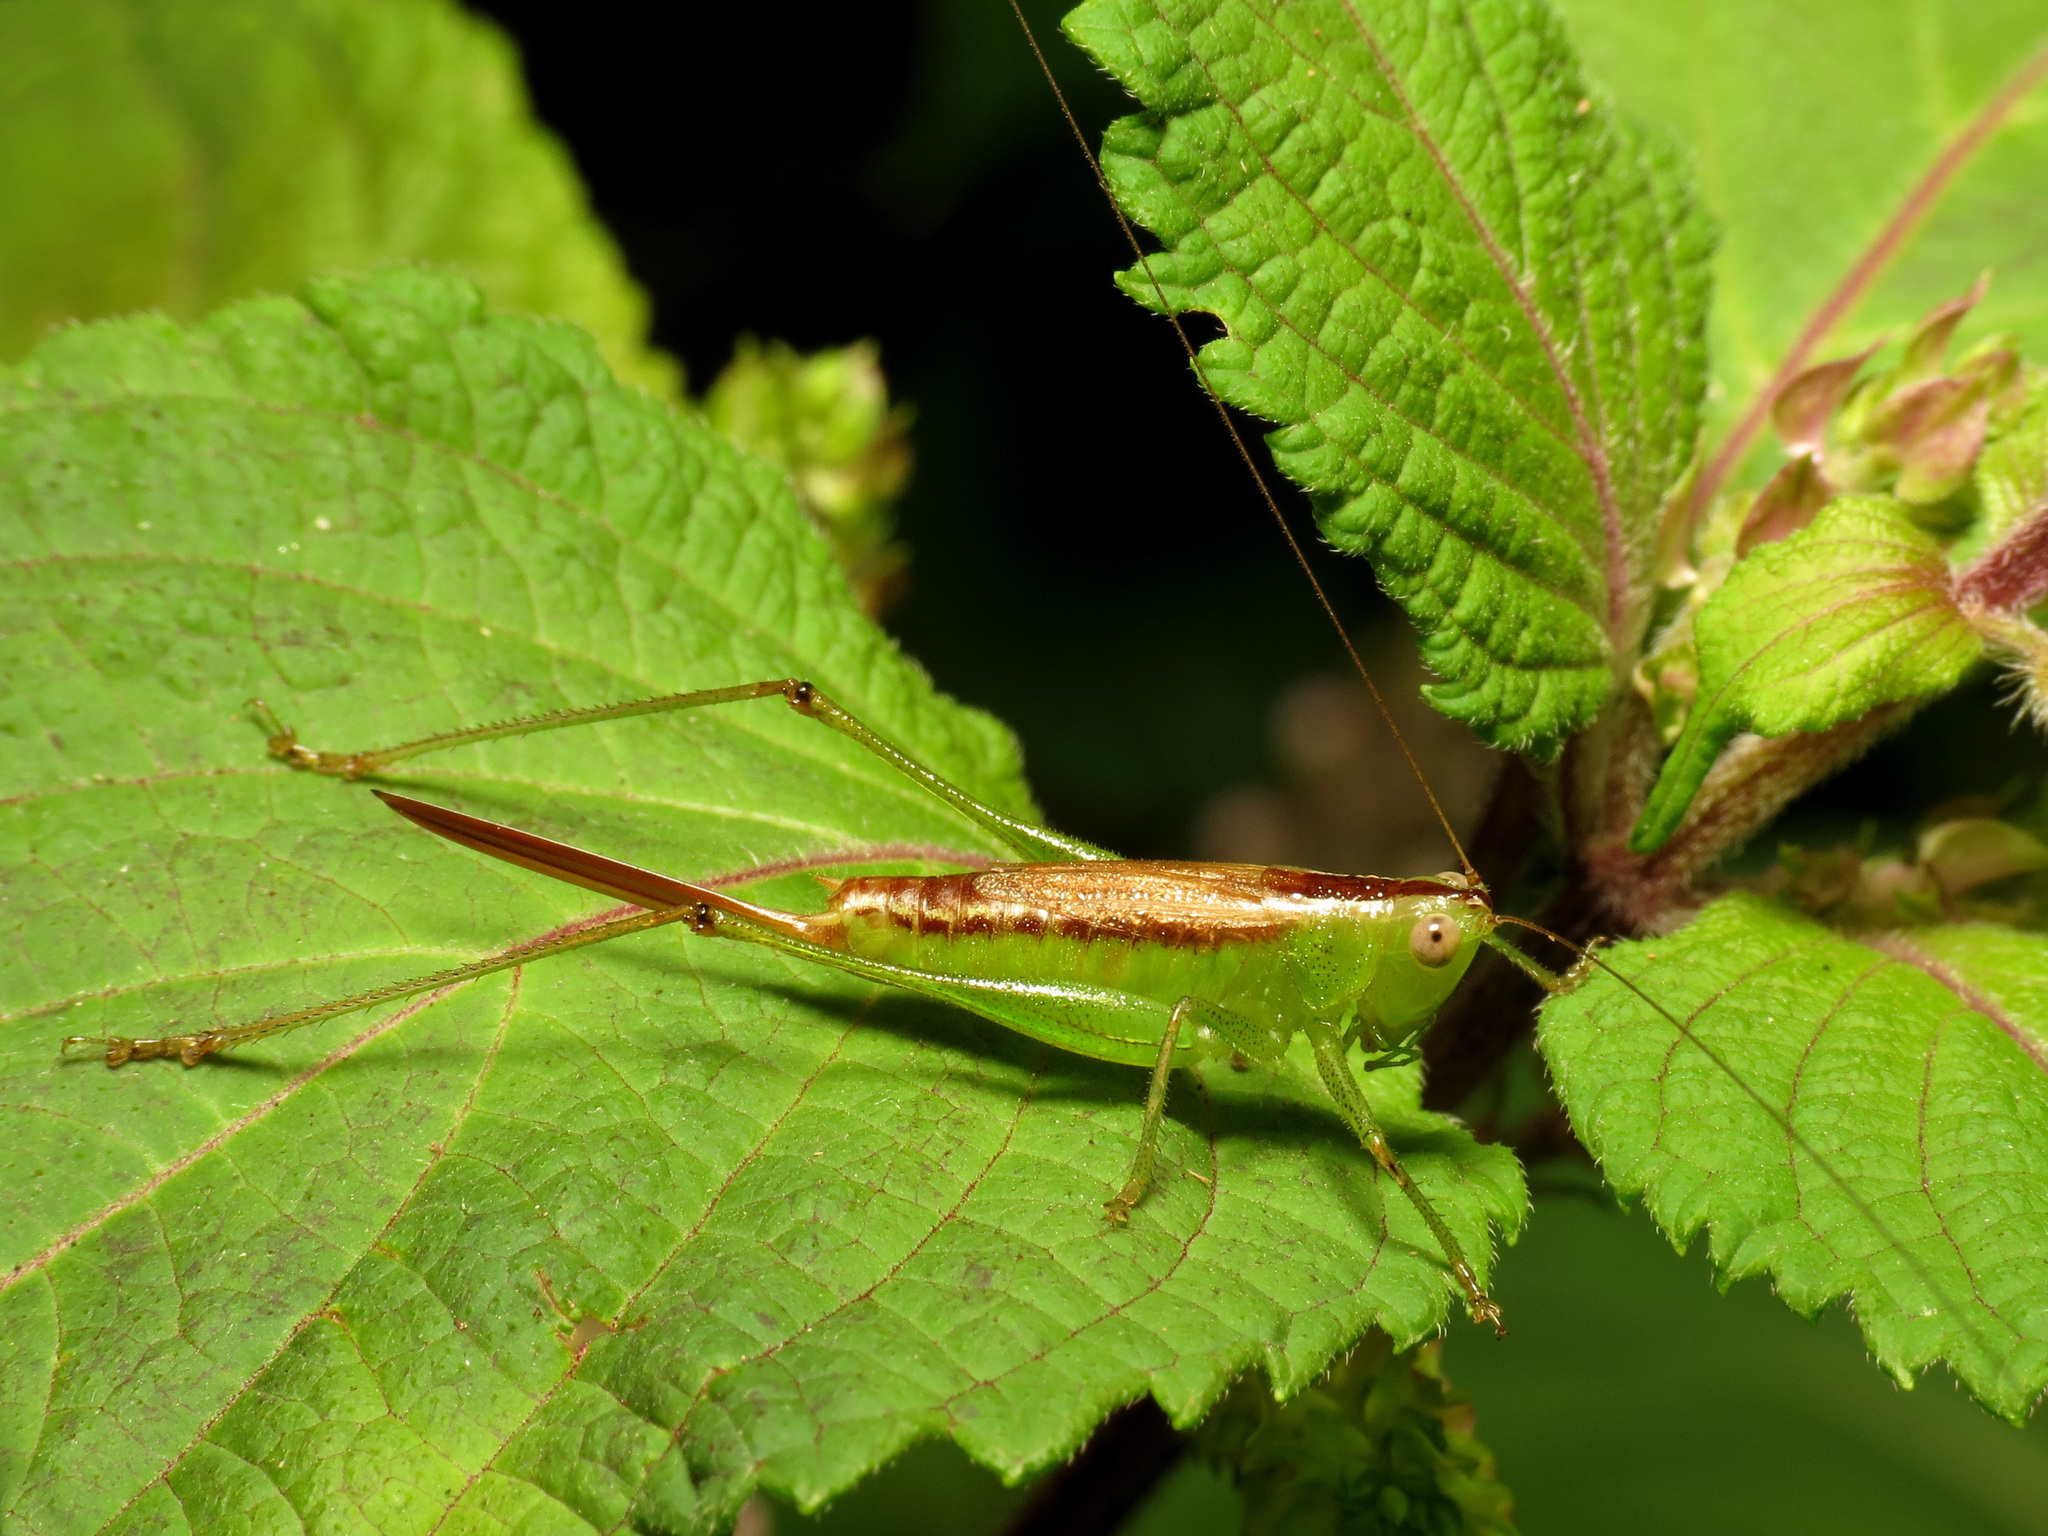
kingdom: Animalia
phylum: Arthropoda
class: Insecta
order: Orthoptera
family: Tettigoniidae
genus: Conocephalus
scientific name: Conocephalus brevipennis
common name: Short-winged meadow katydid
